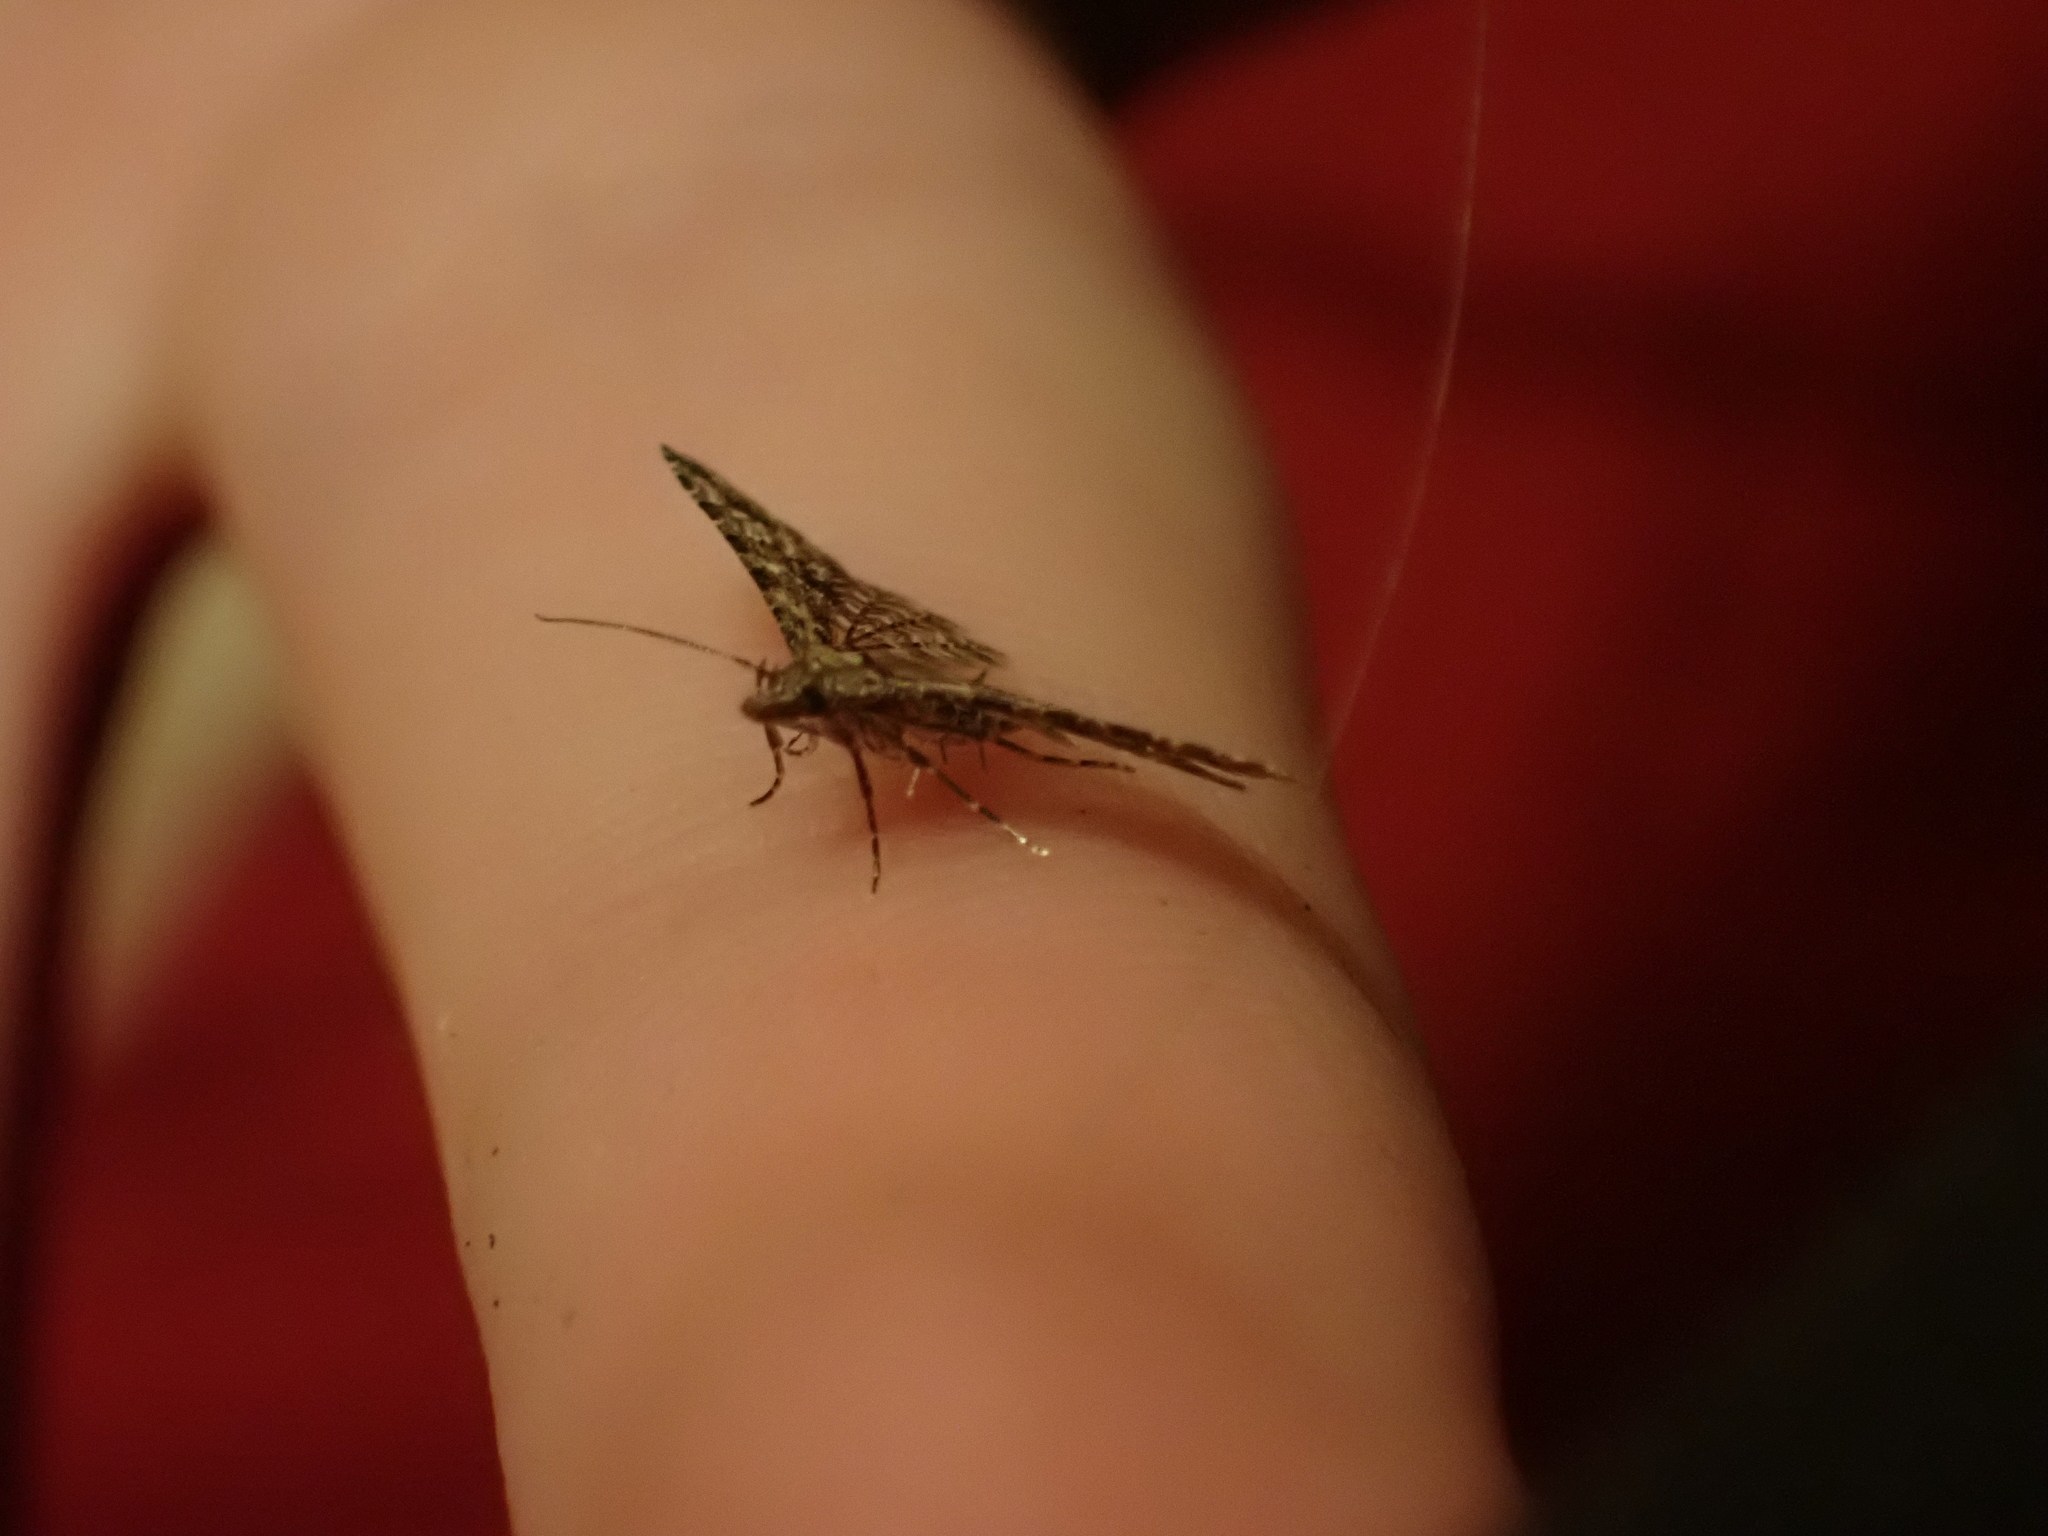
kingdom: Animalia
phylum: Arthropoda
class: Insecta
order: Lepidoptera
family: Alucitidae
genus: Alucita
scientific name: Alucita montana
